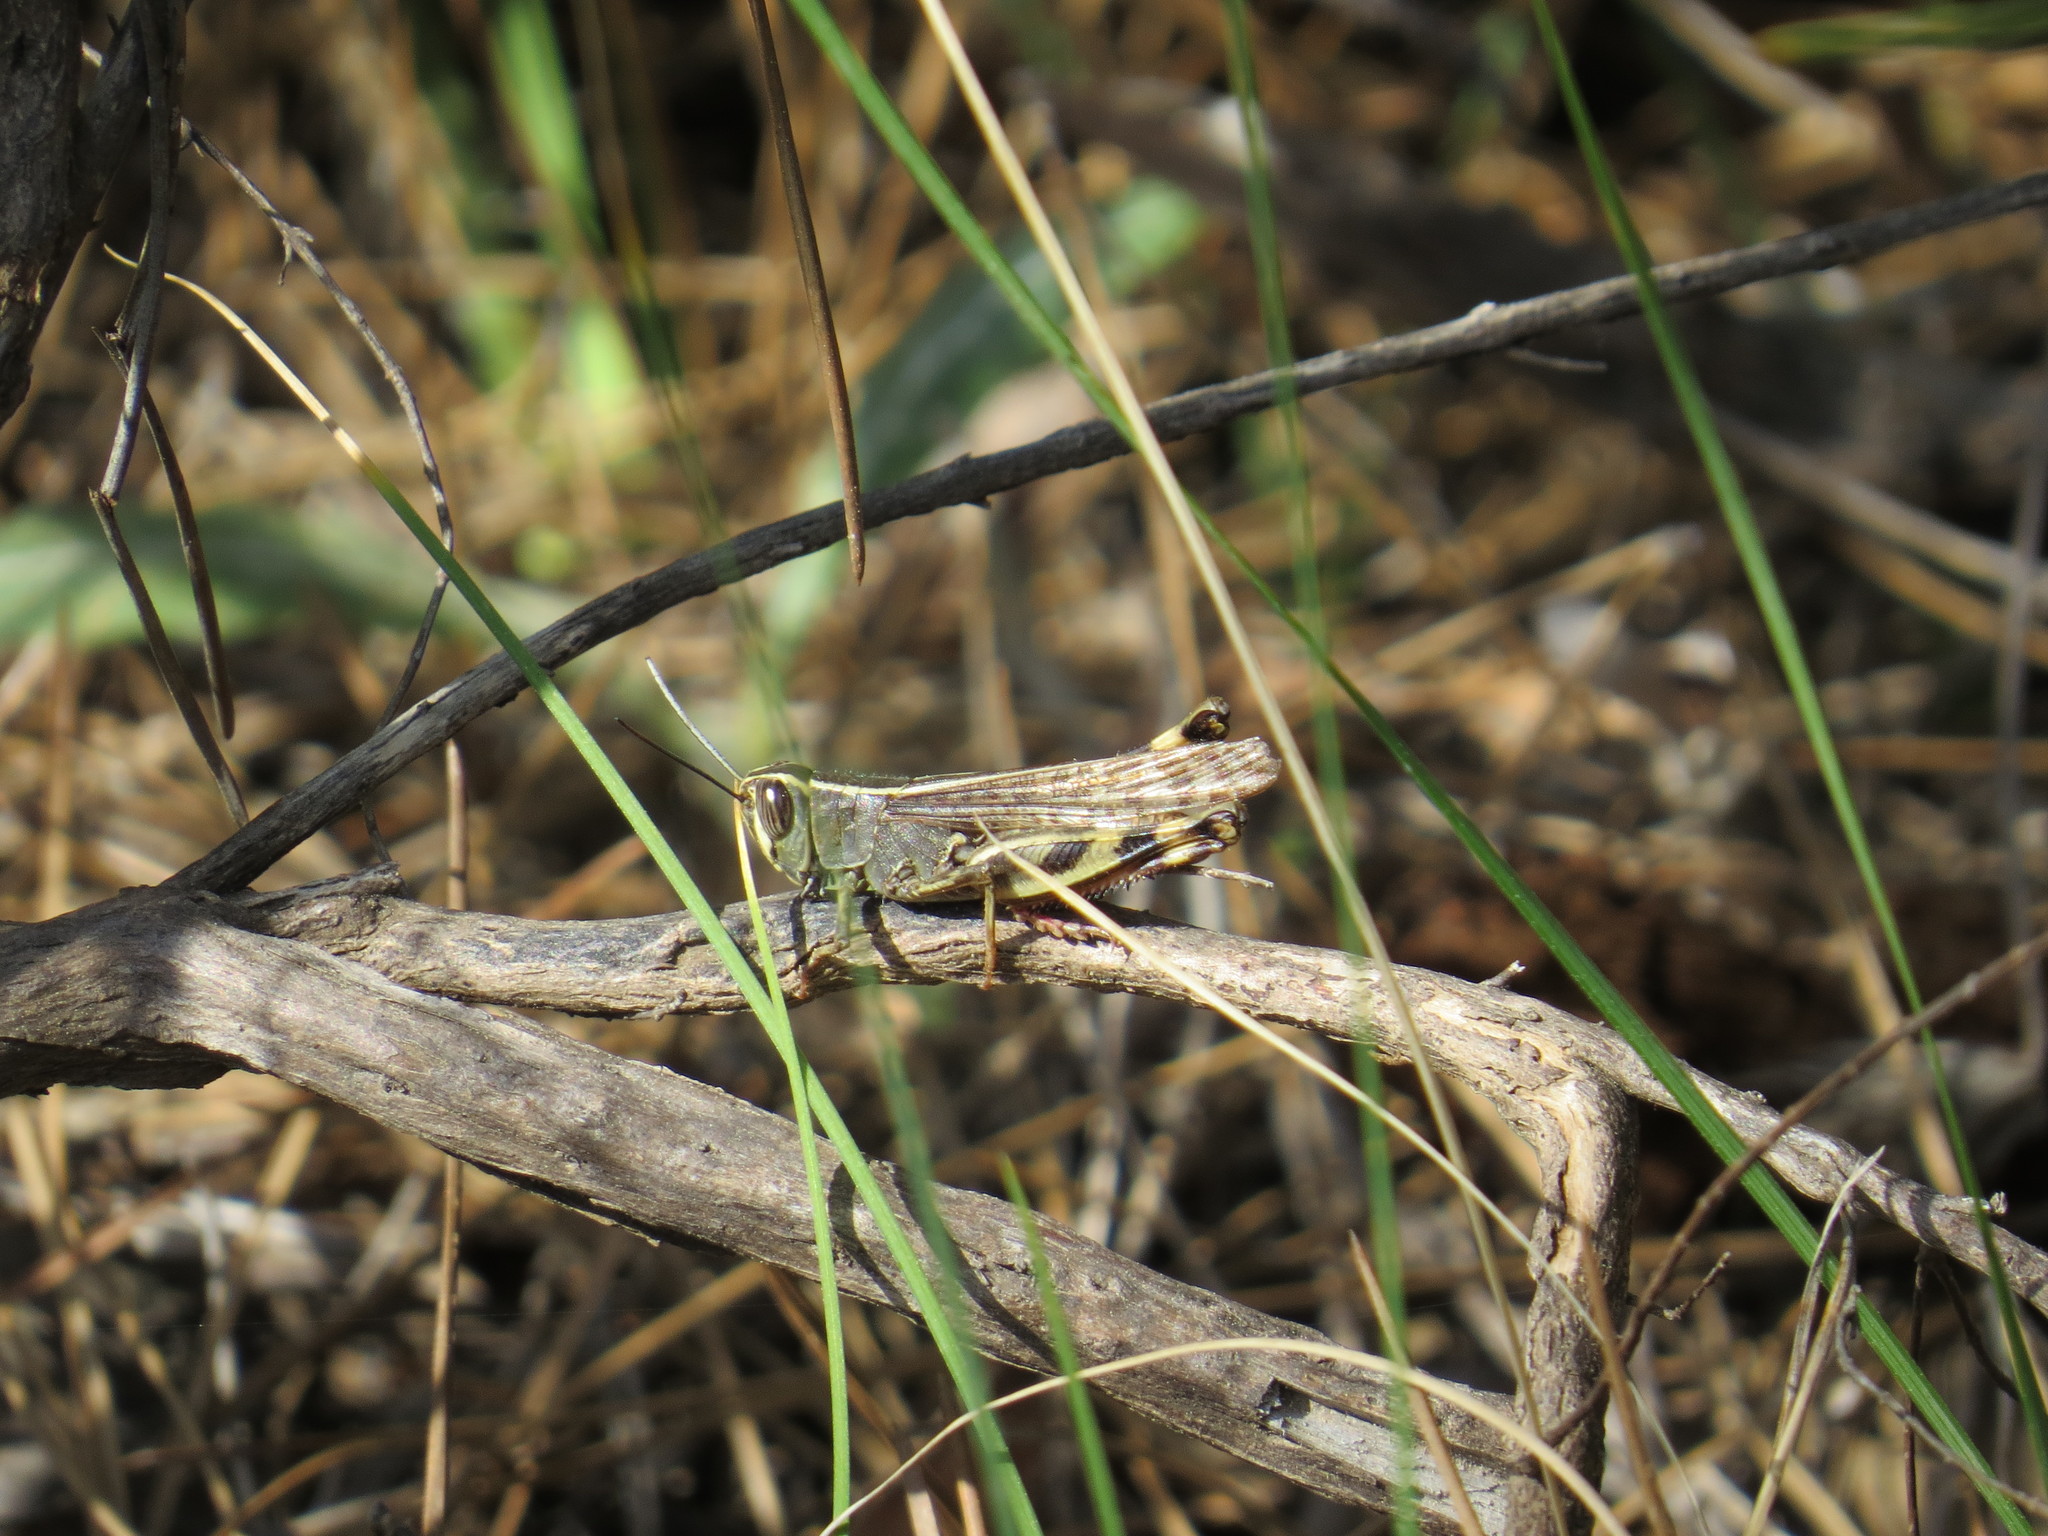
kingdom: Animalia
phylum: Arthropoda
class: Insecta
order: Orthoptera
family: Acrididae
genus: Heteracris
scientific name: Heteracris littoralis
